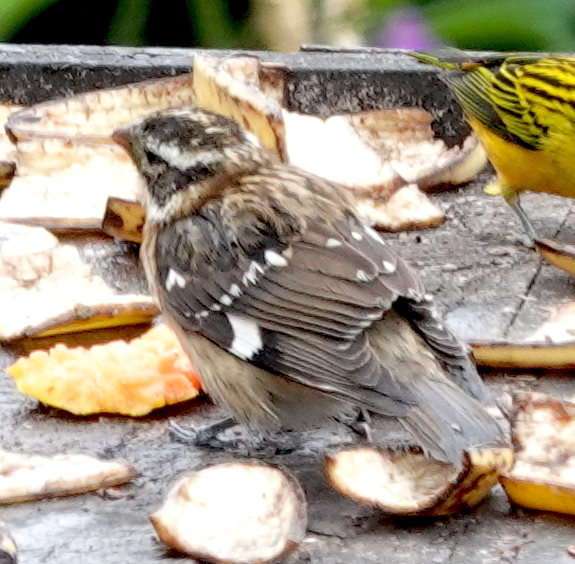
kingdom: Animalia
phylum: Chordata
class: Aves
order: Passeriformes
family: Cardinalidae
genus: Pheucticus
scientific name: Pheucticus ludovicianus
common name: Rose-breasted grosbeak
